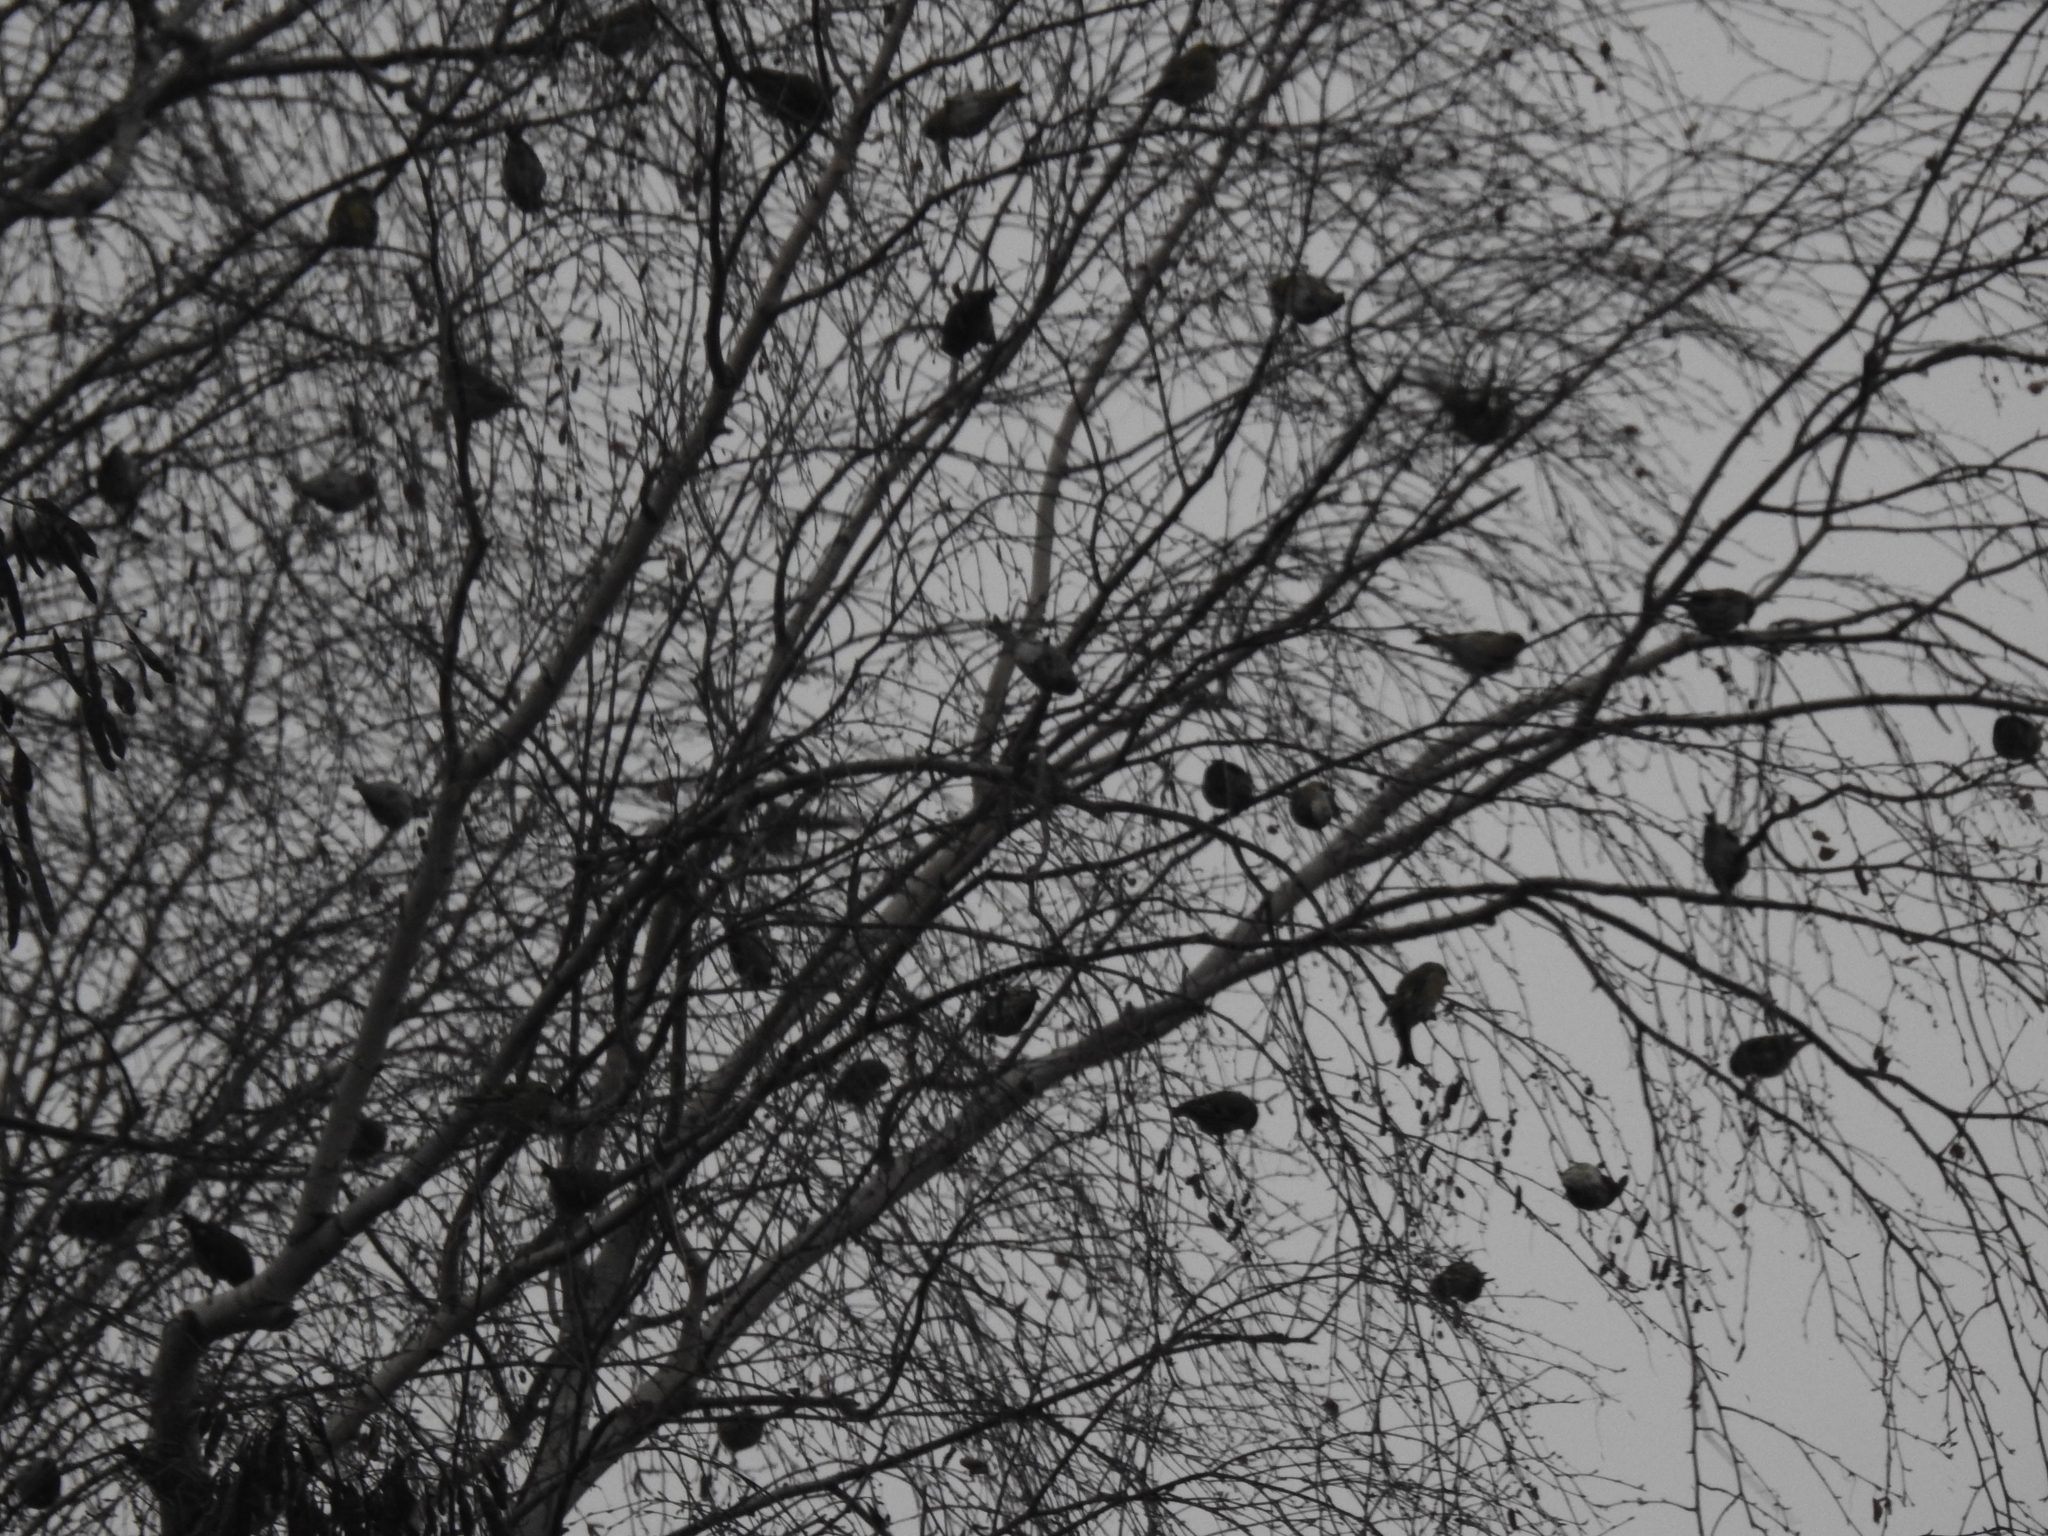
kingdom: Animalia
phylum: Chordata
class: Aves
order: Passeriformes
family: Fringillidae
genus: Spinus
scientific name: Spinus spinus
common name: Eurasian siskin
